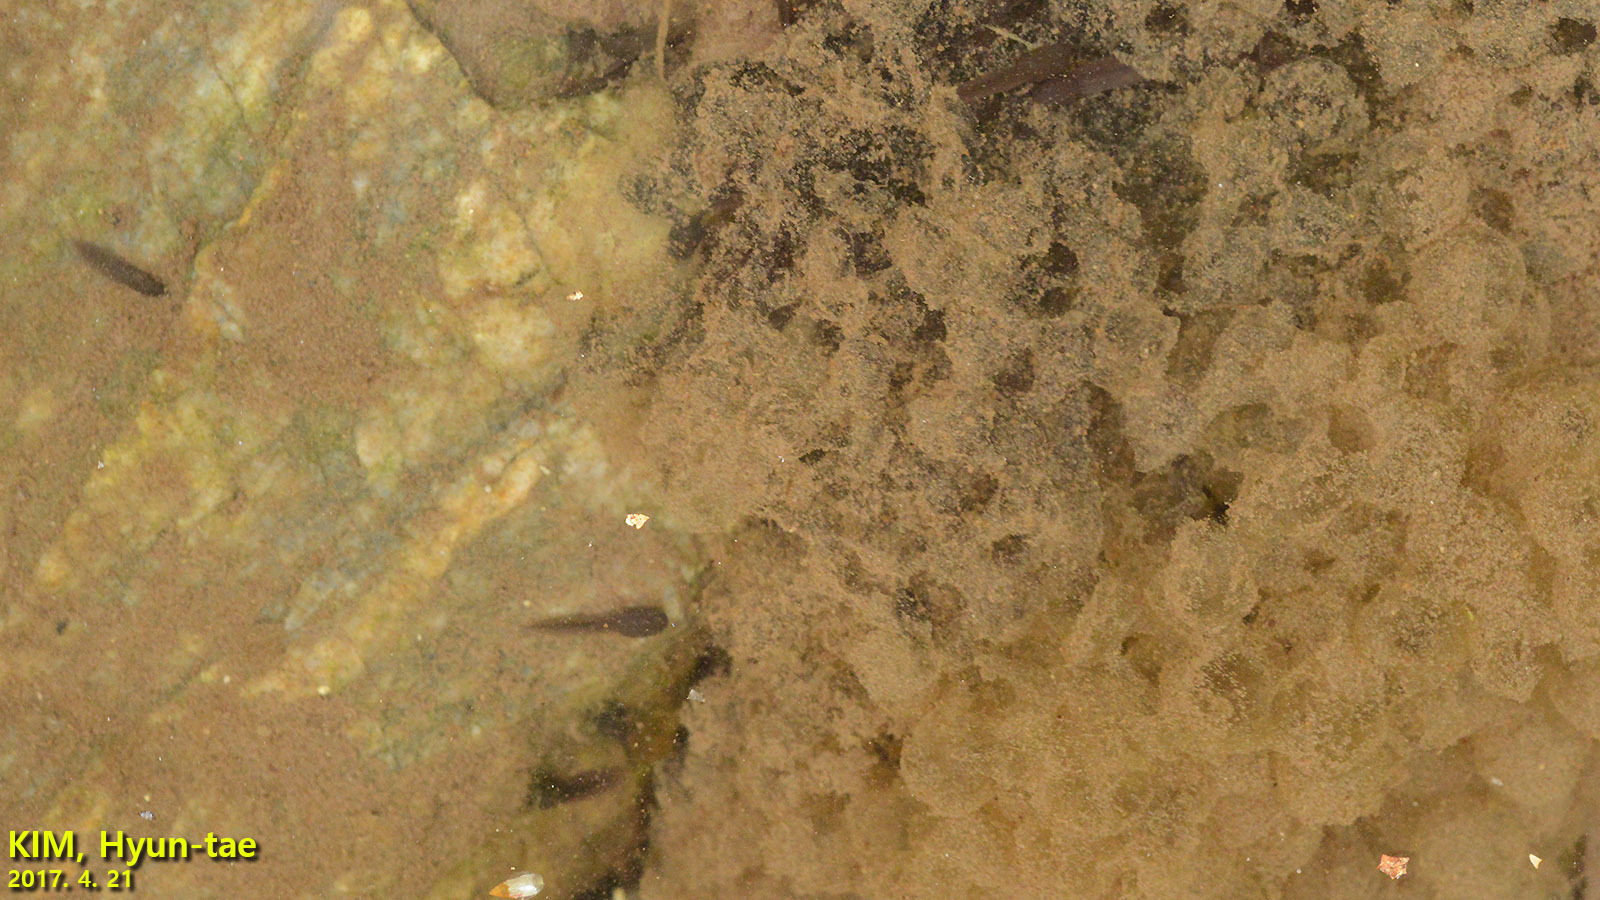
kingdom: Animalia
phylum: Chordata
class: Amphibia
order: Anura
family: Ranidae
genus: Rana
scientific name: Rana huanrenensis
